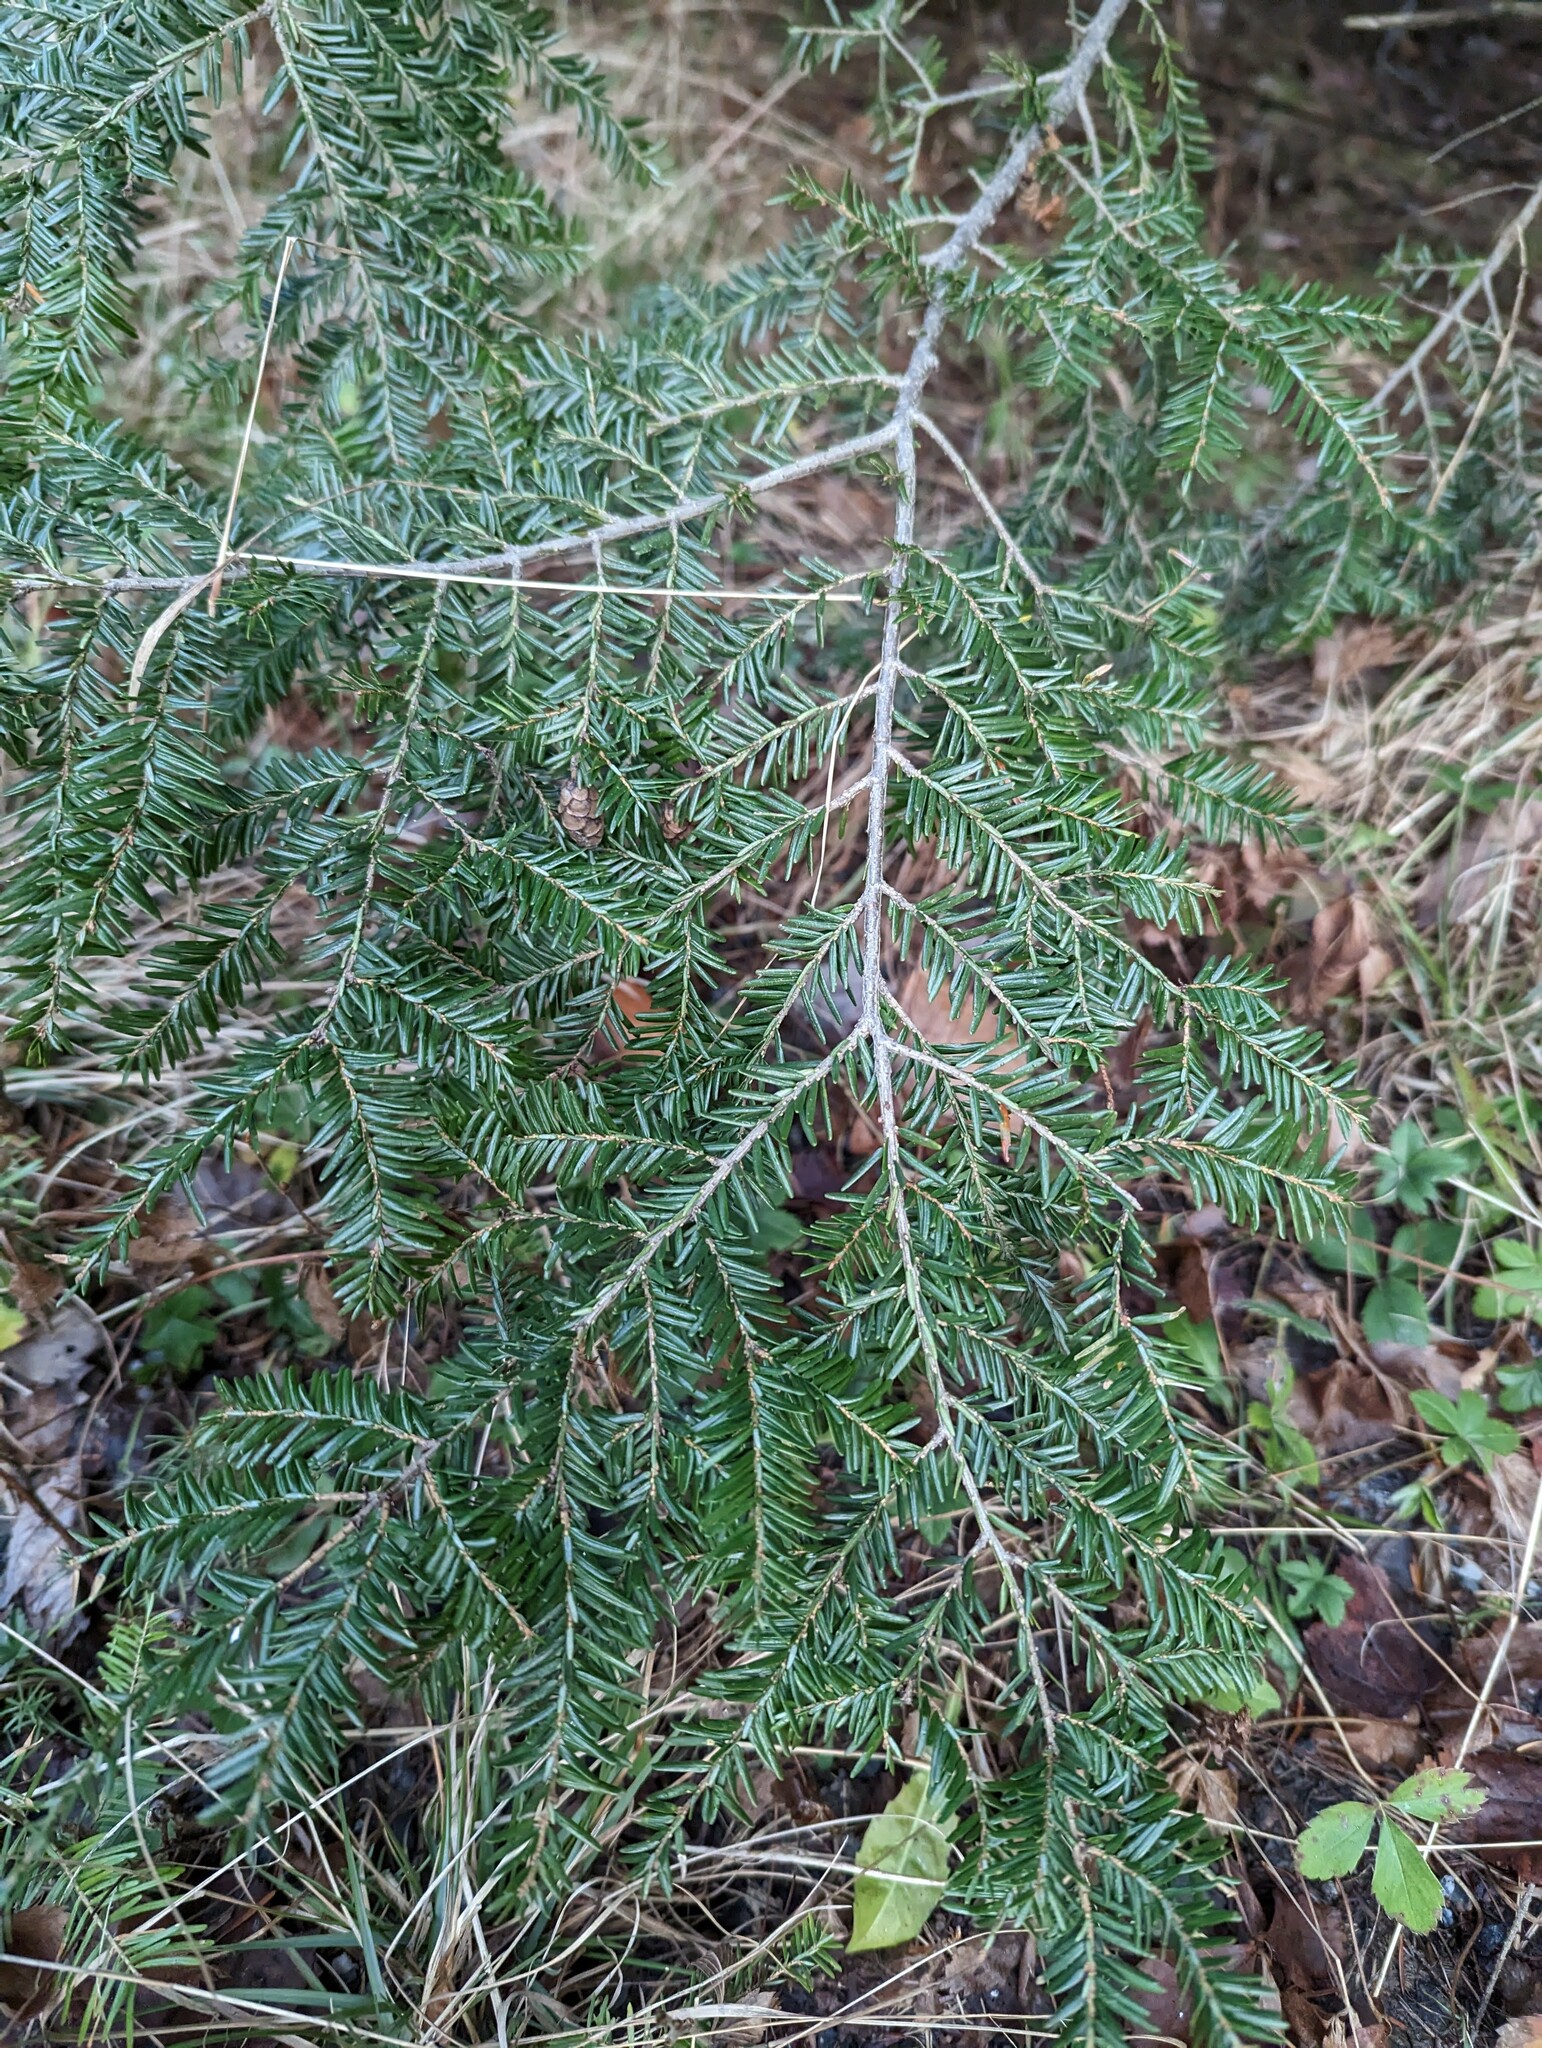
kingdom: Plantae
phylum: Tracheophyta
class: Pinopsida
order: Pinales
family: Pinaceae
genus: Tsuga
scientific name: Tsuga canadensis
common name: Eastern hemlock
